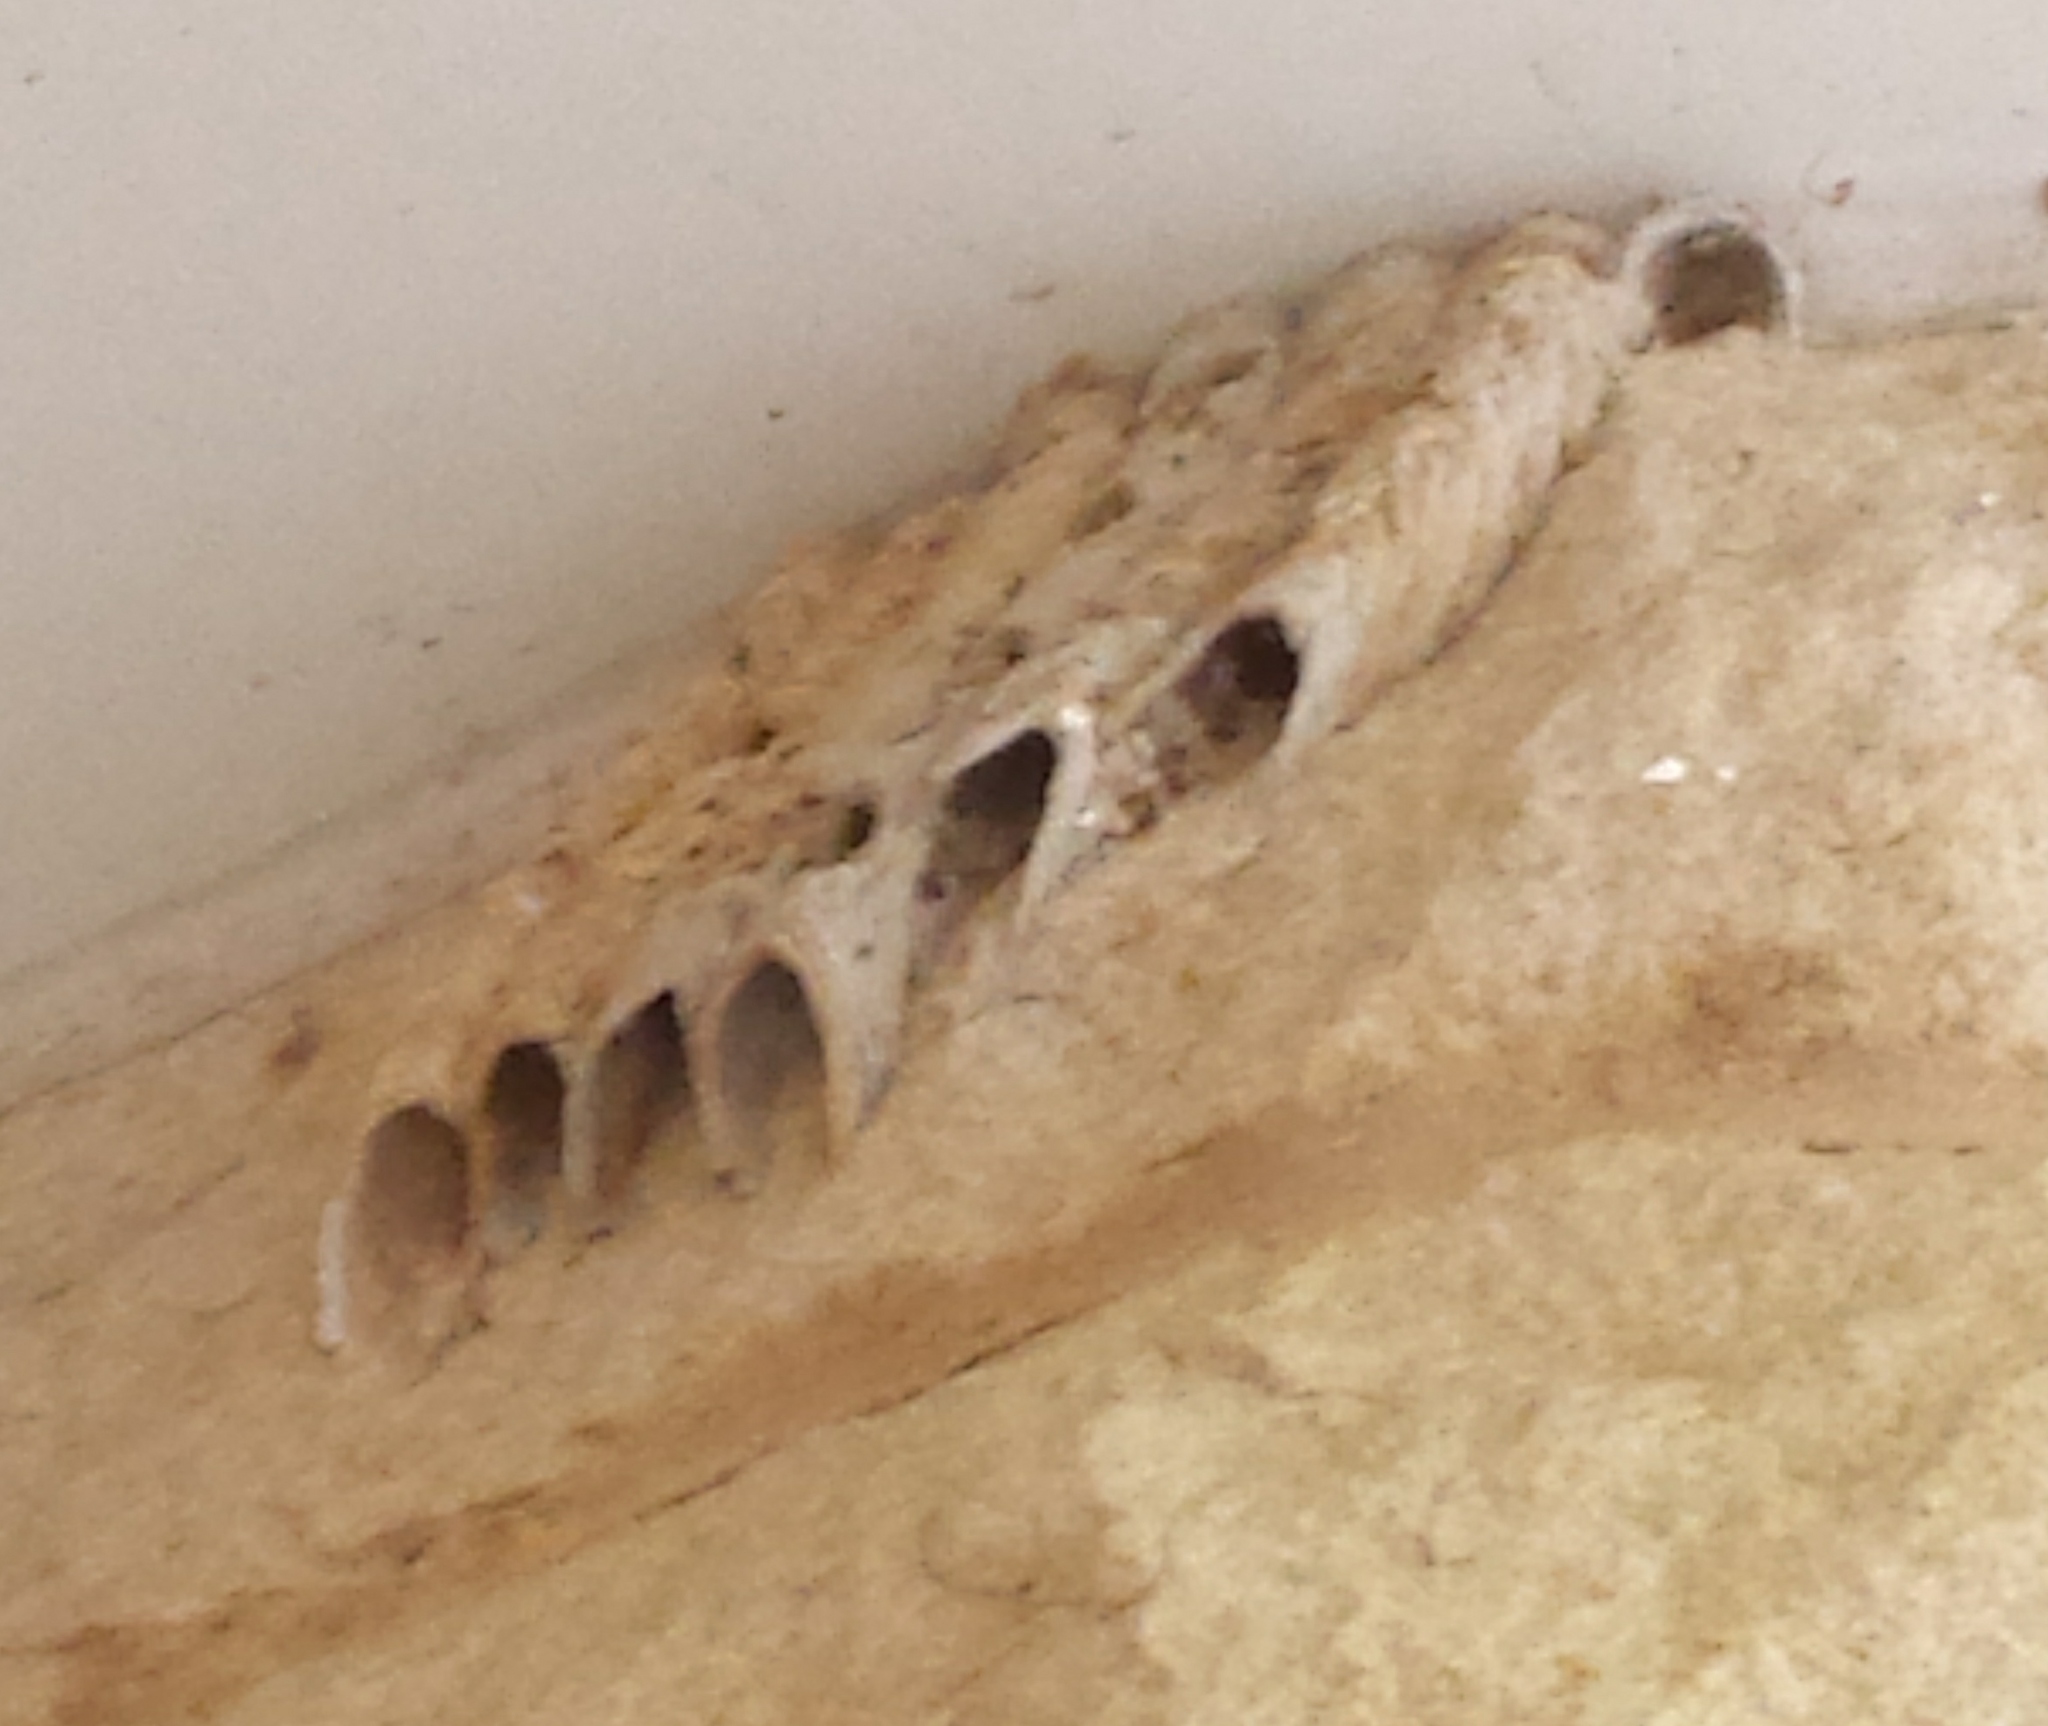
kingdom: Animalia
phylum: Arthropoda
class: Insecta
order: Hymenoptera
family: Crabronidae
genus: Trypoxylon
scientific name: Trypoxylon politum
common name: Organ-pipe mud-dauber wasp
